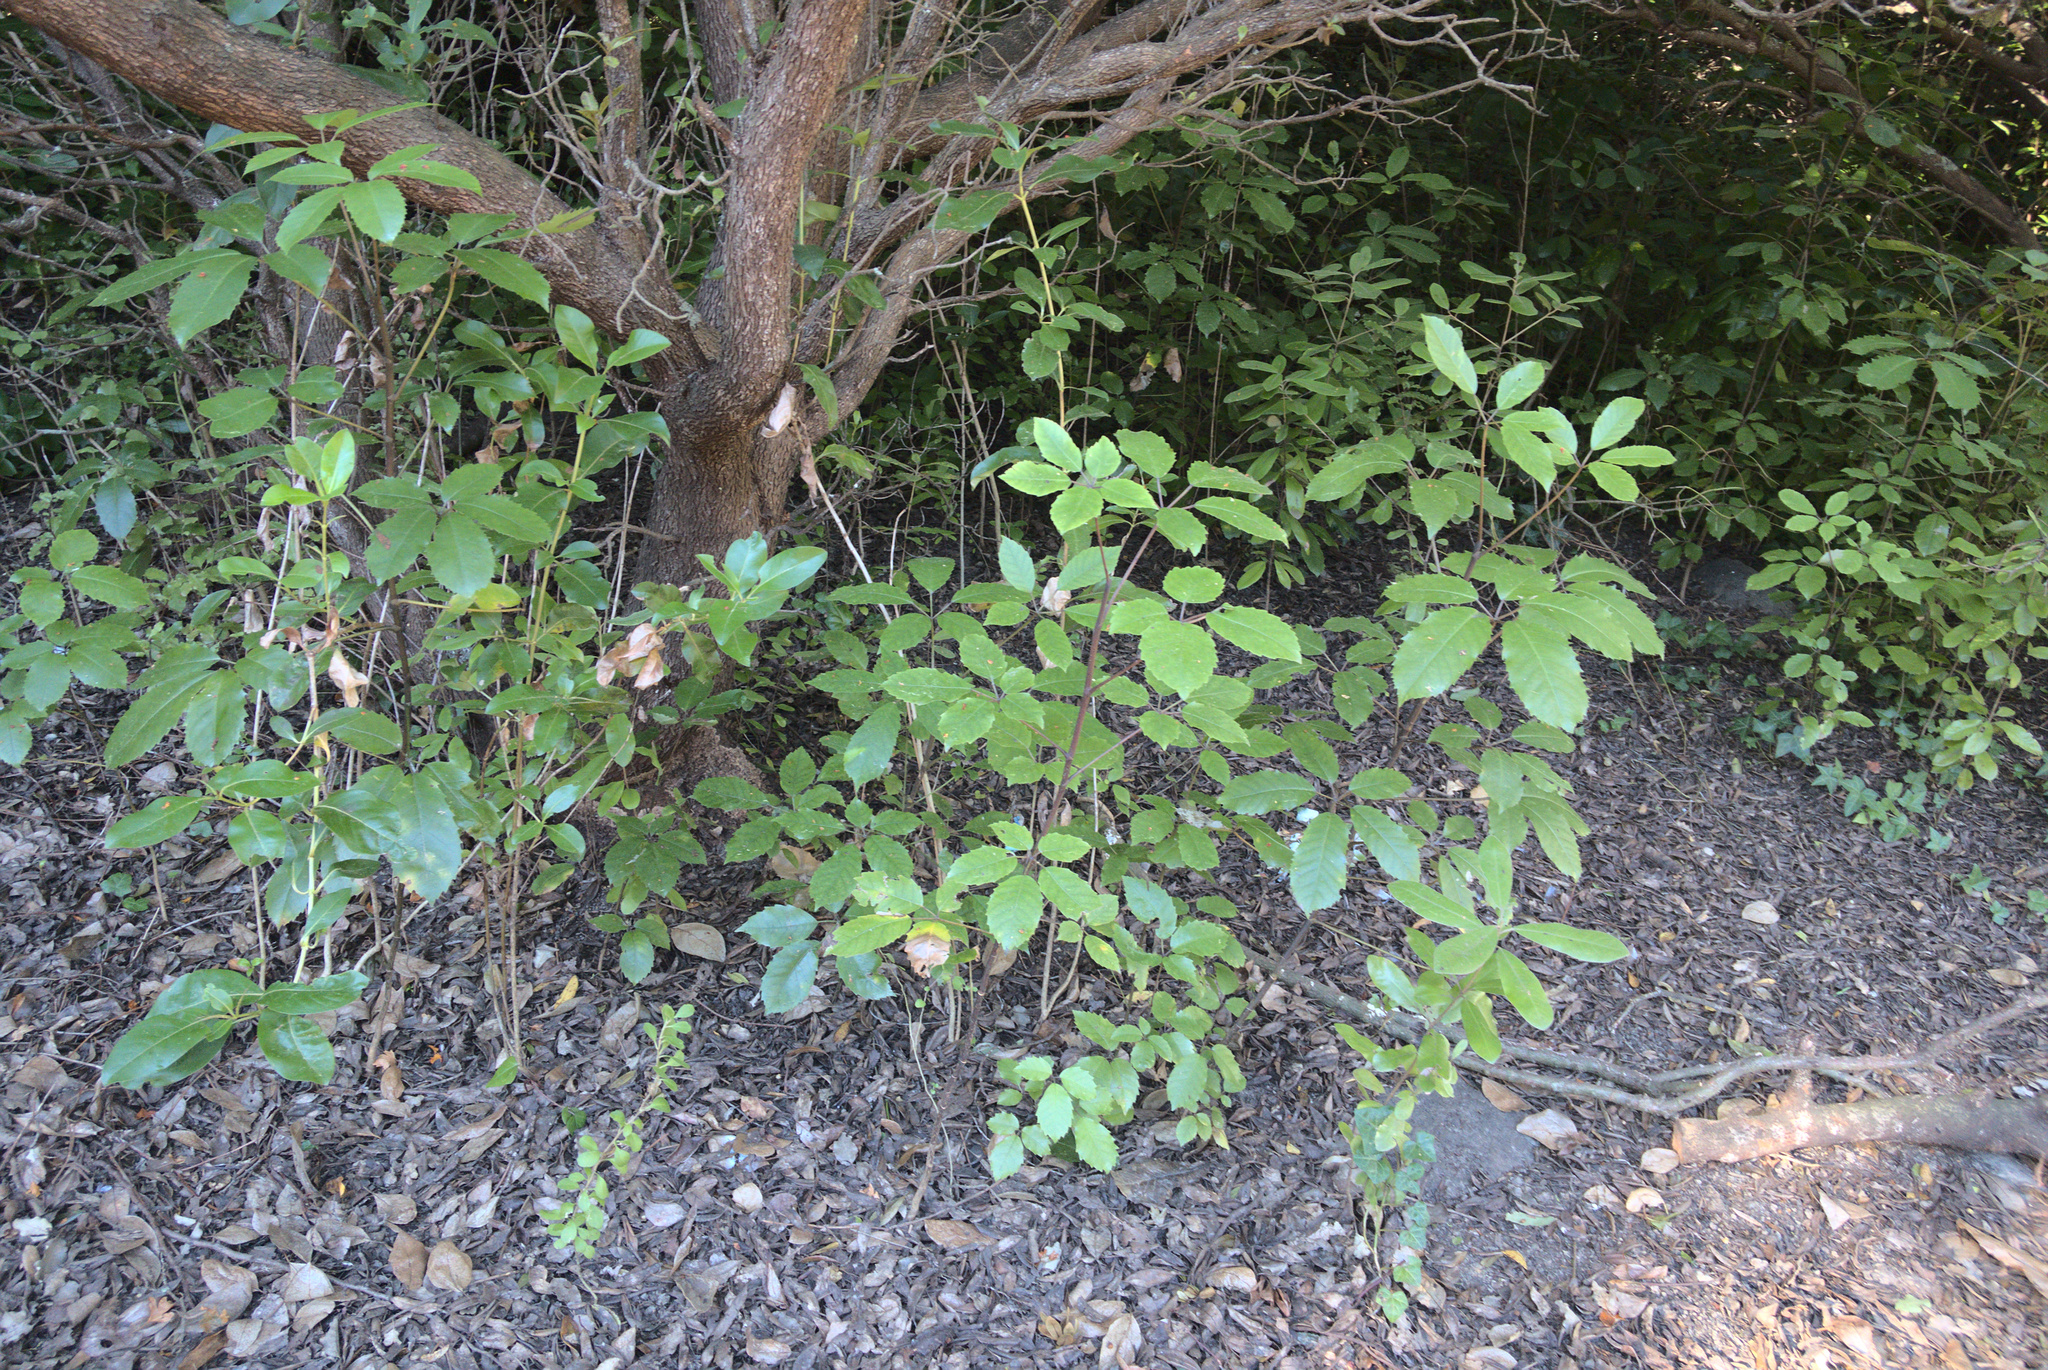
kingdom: Plantae
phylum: Tracheophyta
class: Magnoliopsida
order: Apiales
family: Araliaceae
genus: Neopanax
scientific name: Neopanax arboreus
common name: Five-fingers
